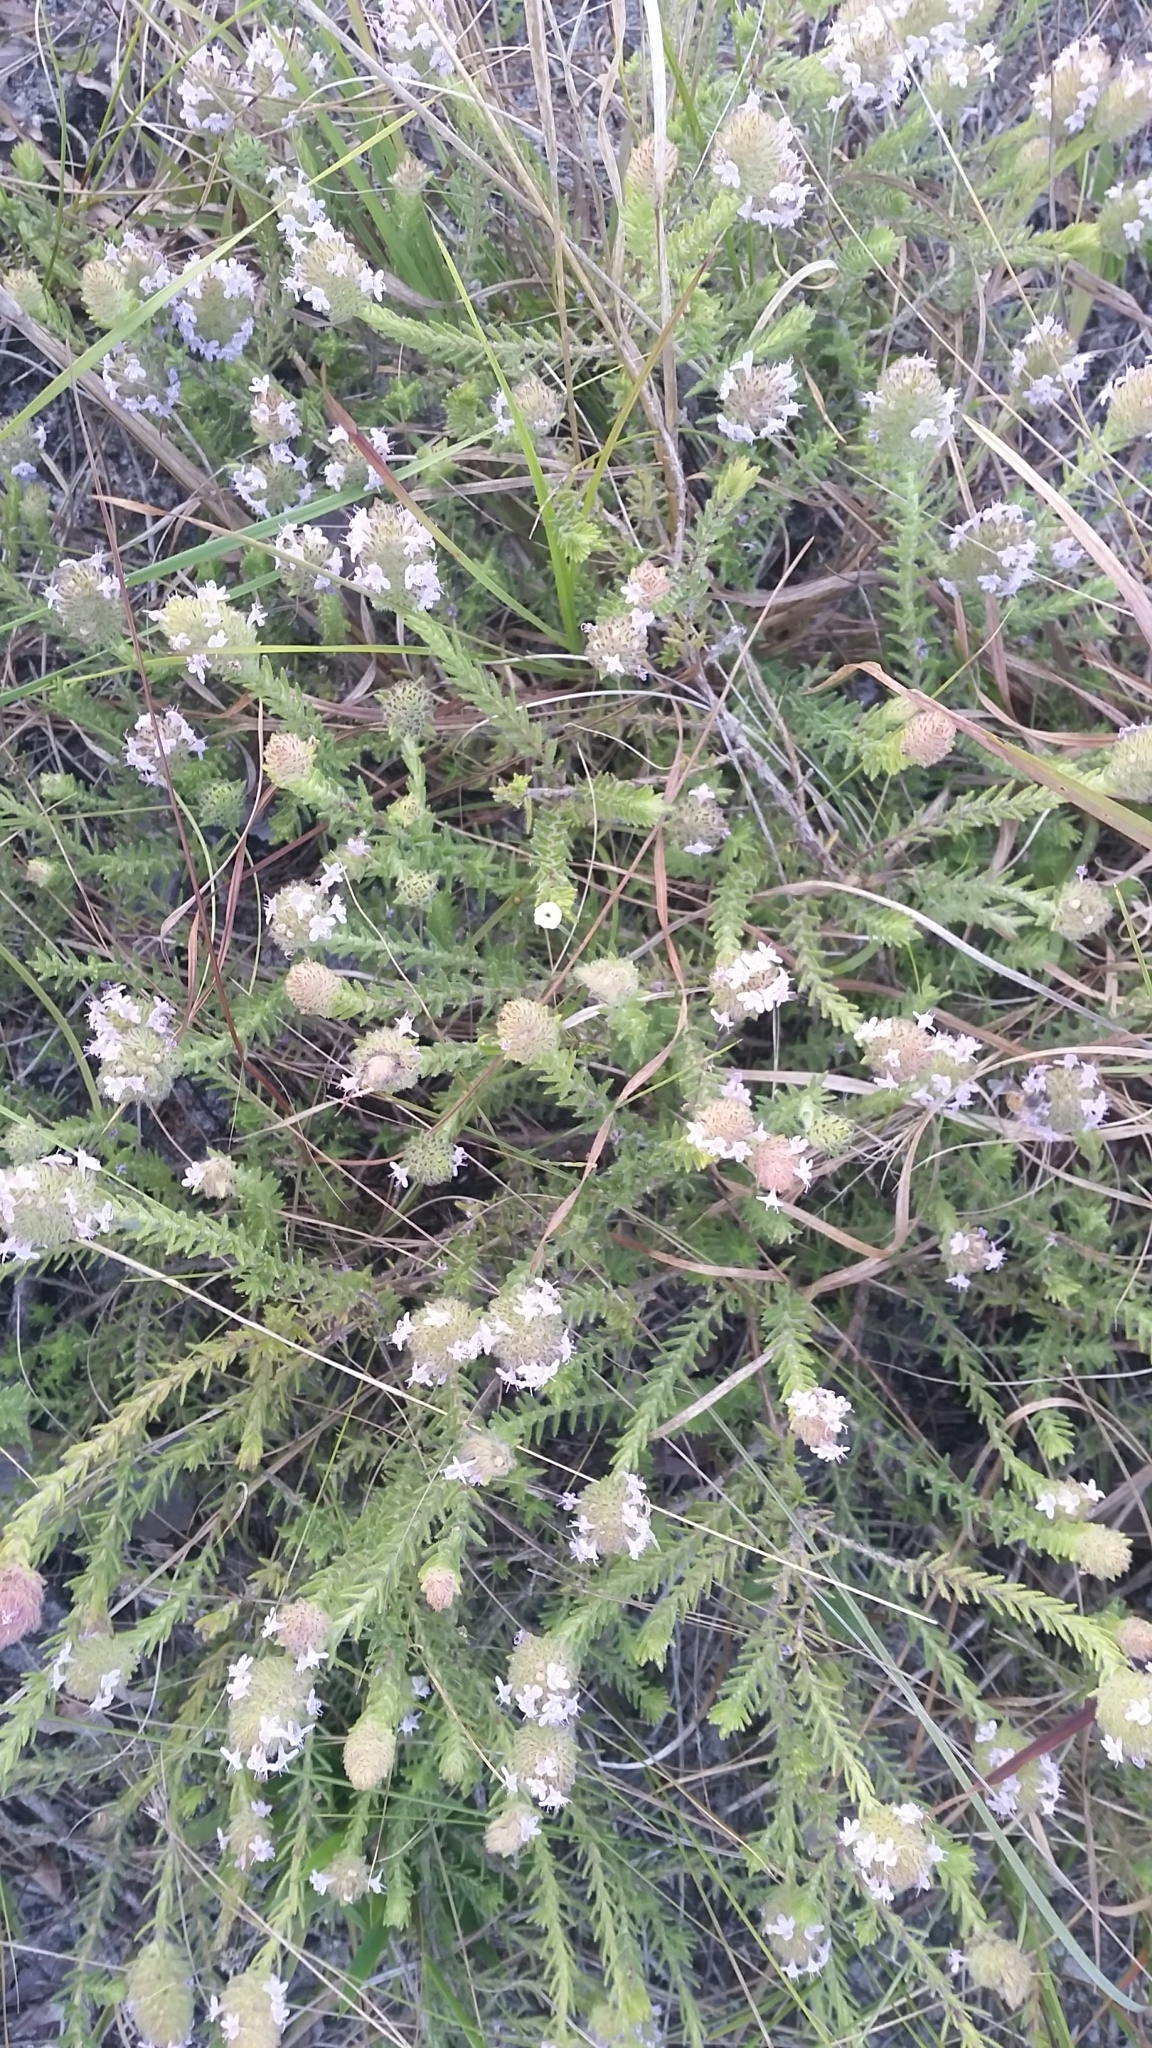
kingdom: Plantae
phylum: Tracheophyta
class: Magnoliopsida
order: Lamiales
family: Lamiaceae
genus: Piloblephis
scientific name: Piloblephis rigida
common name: Wild pennyroyal
